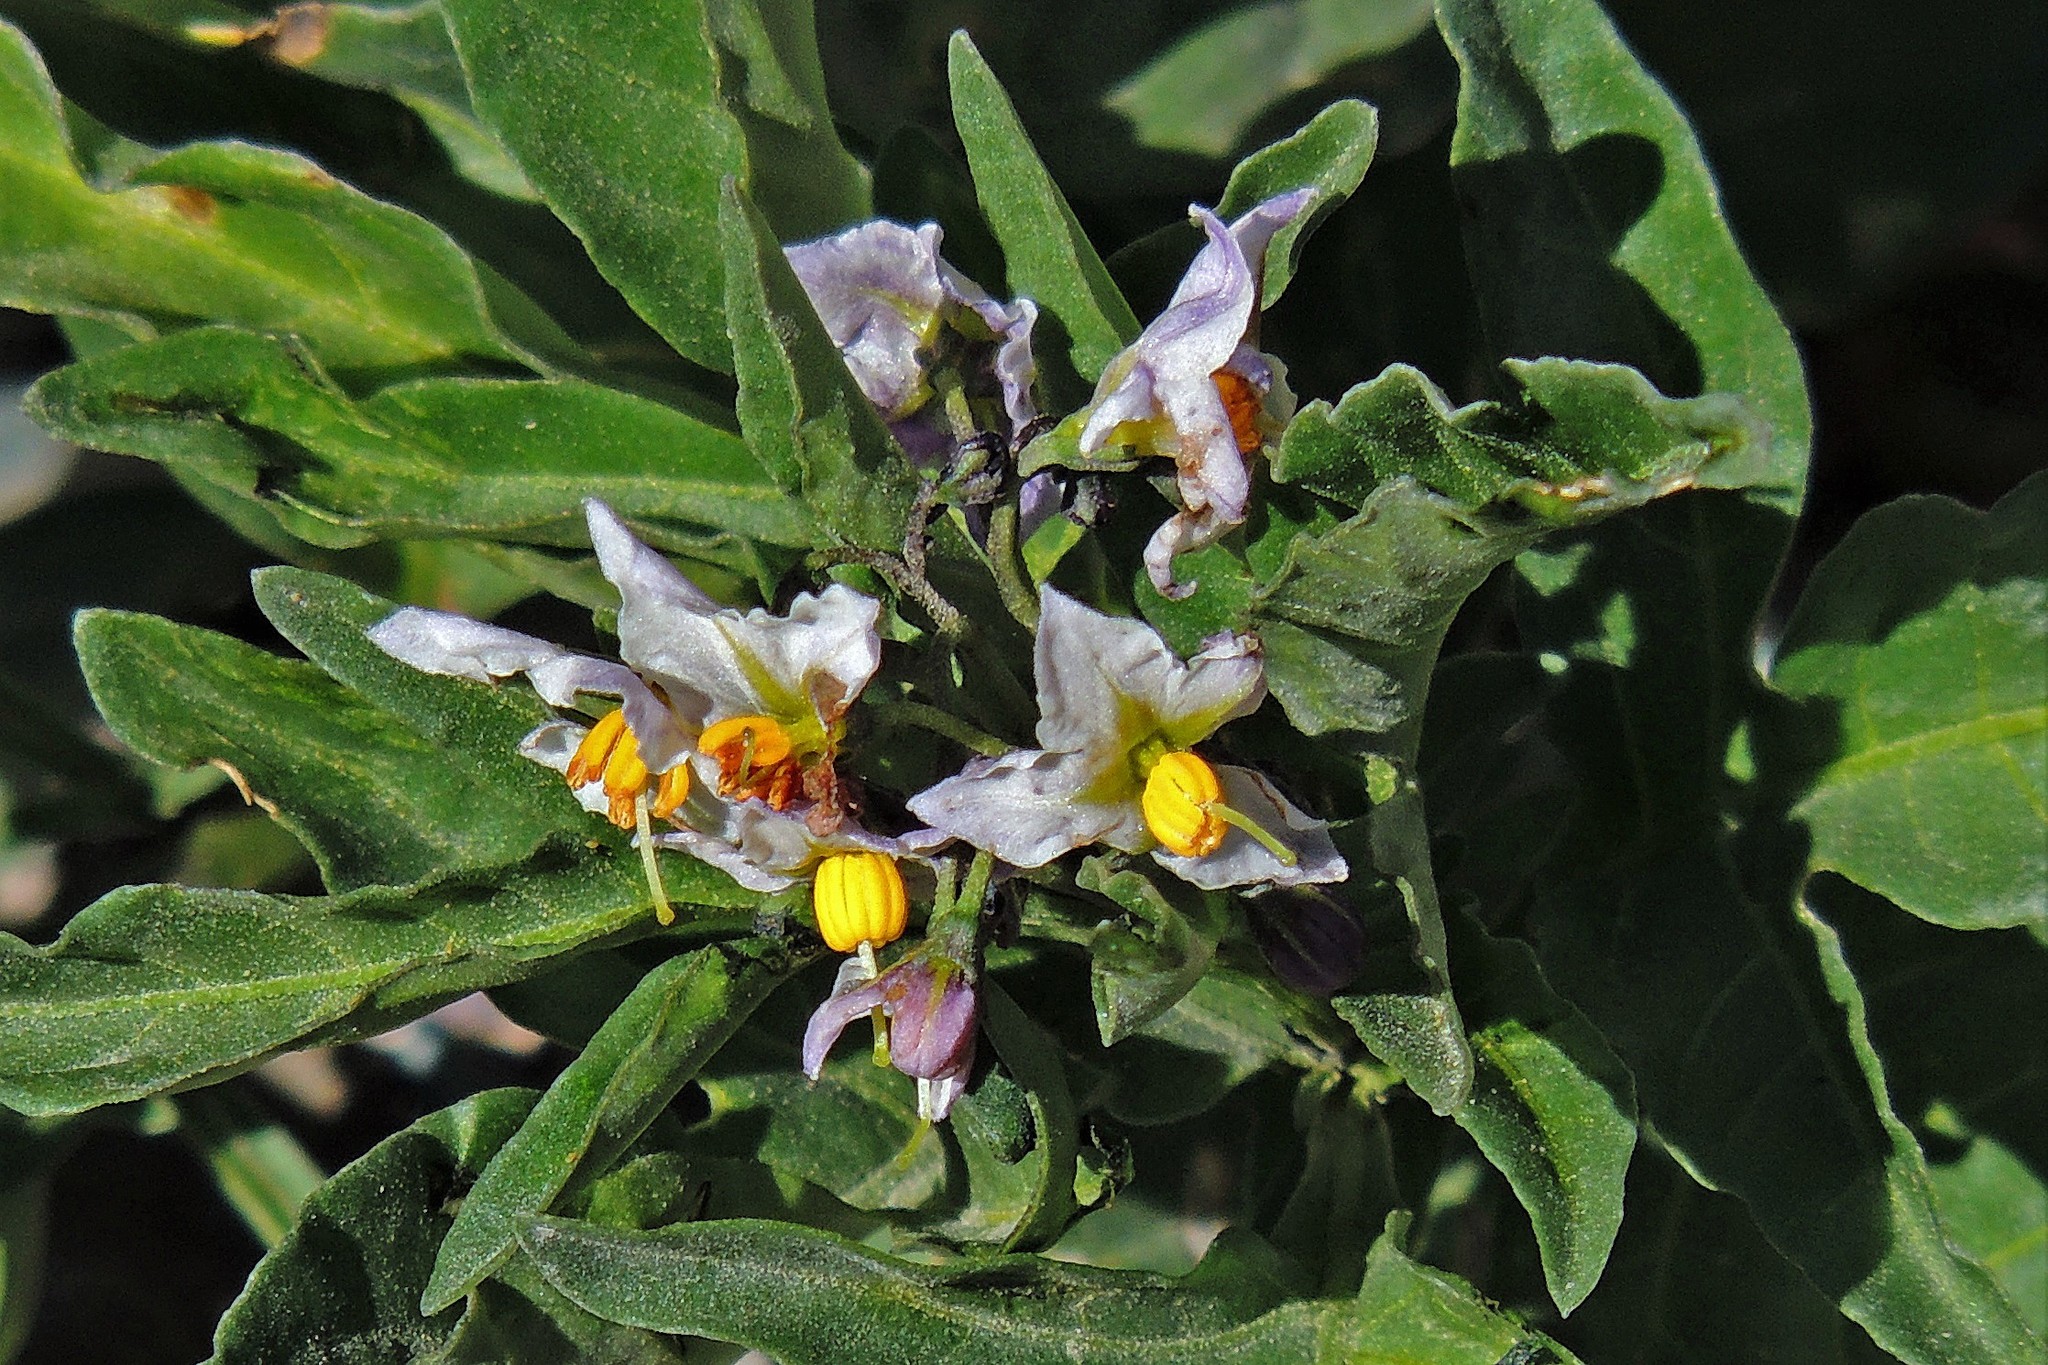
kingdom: Plantae
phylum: Tracheophyta
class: Magnoliopsida
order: Solanales
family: Solanaceae
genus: Solanum
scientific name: Solanum tripartitum
